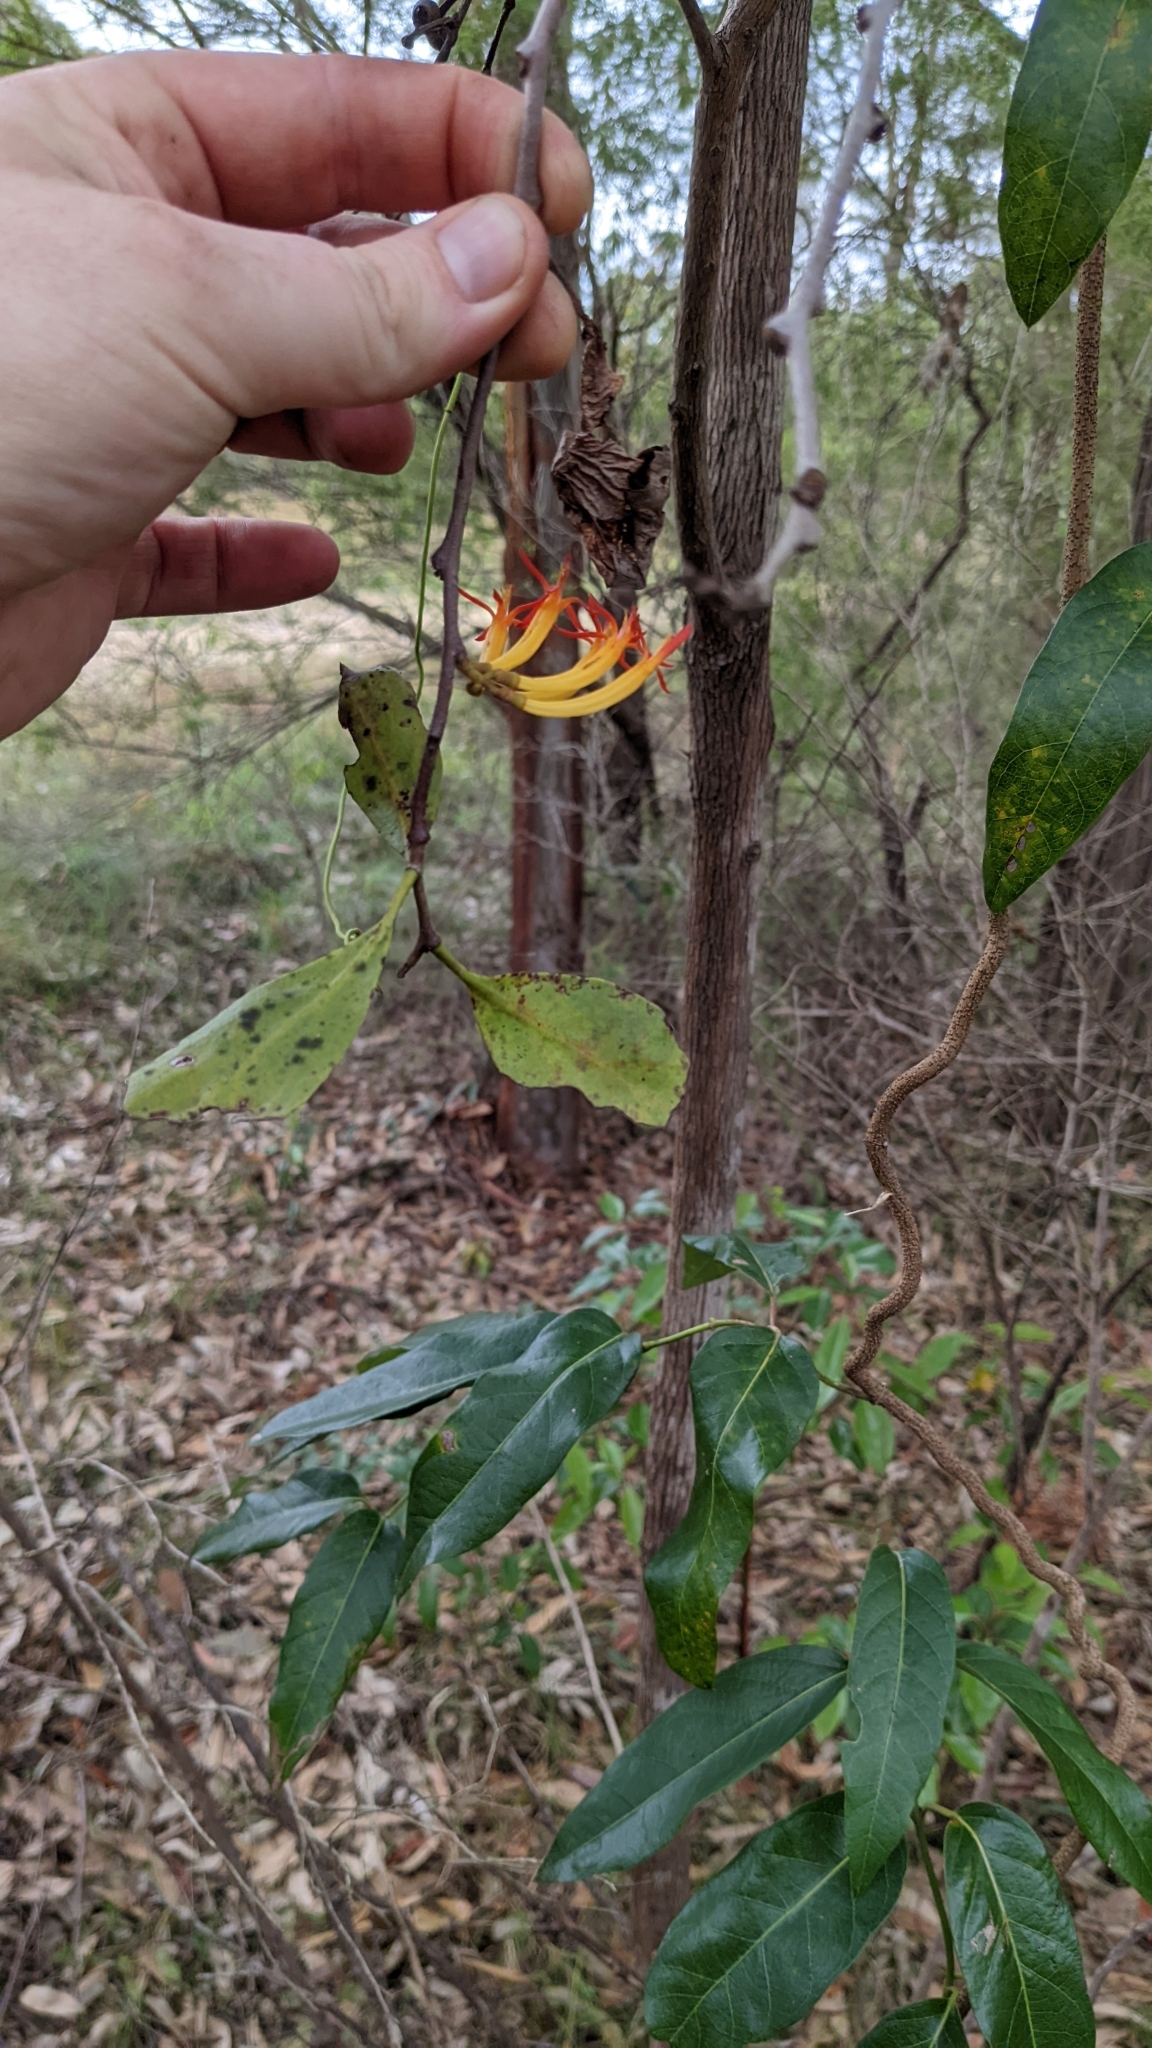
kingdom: Plantae
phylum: Tracheophyta
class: Magnoliopsida
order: Santalales
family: Loranthaceae
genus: Dendrophthoe
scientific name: Dendrophthoe vitellina
